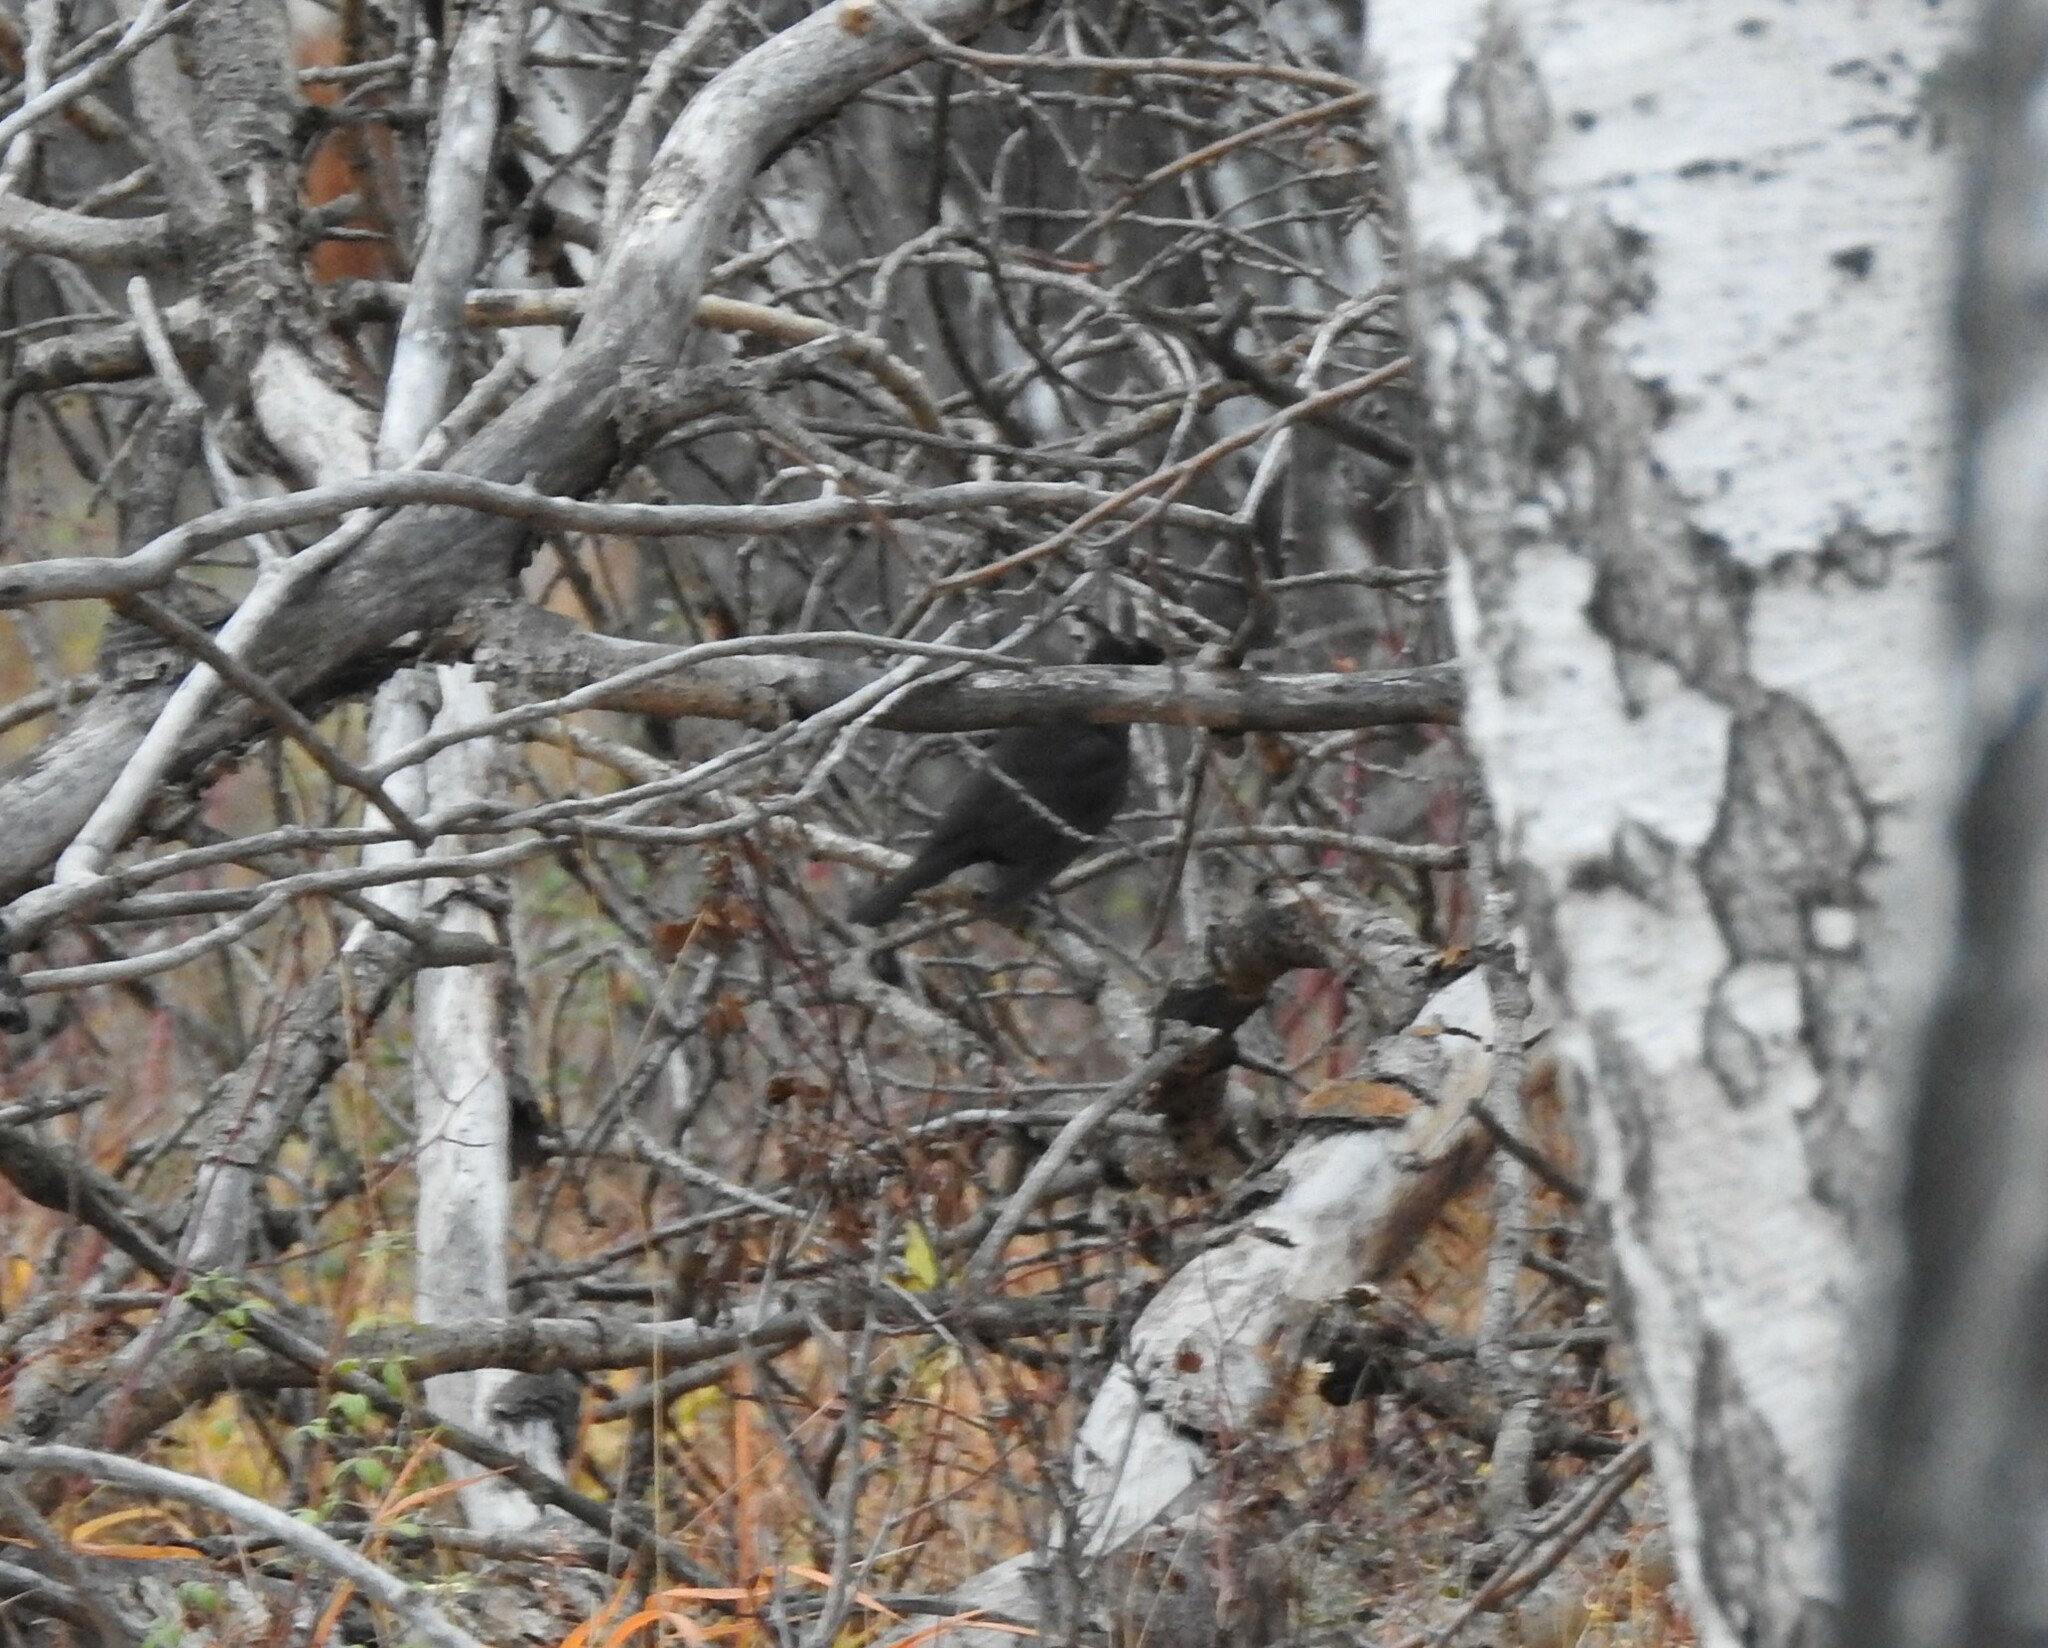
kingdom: Animalia
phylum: Chordata
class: Aves
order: Passeriformes
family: Turdidae
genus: Turdus
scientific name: Turdus merula
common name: Common blackbird
